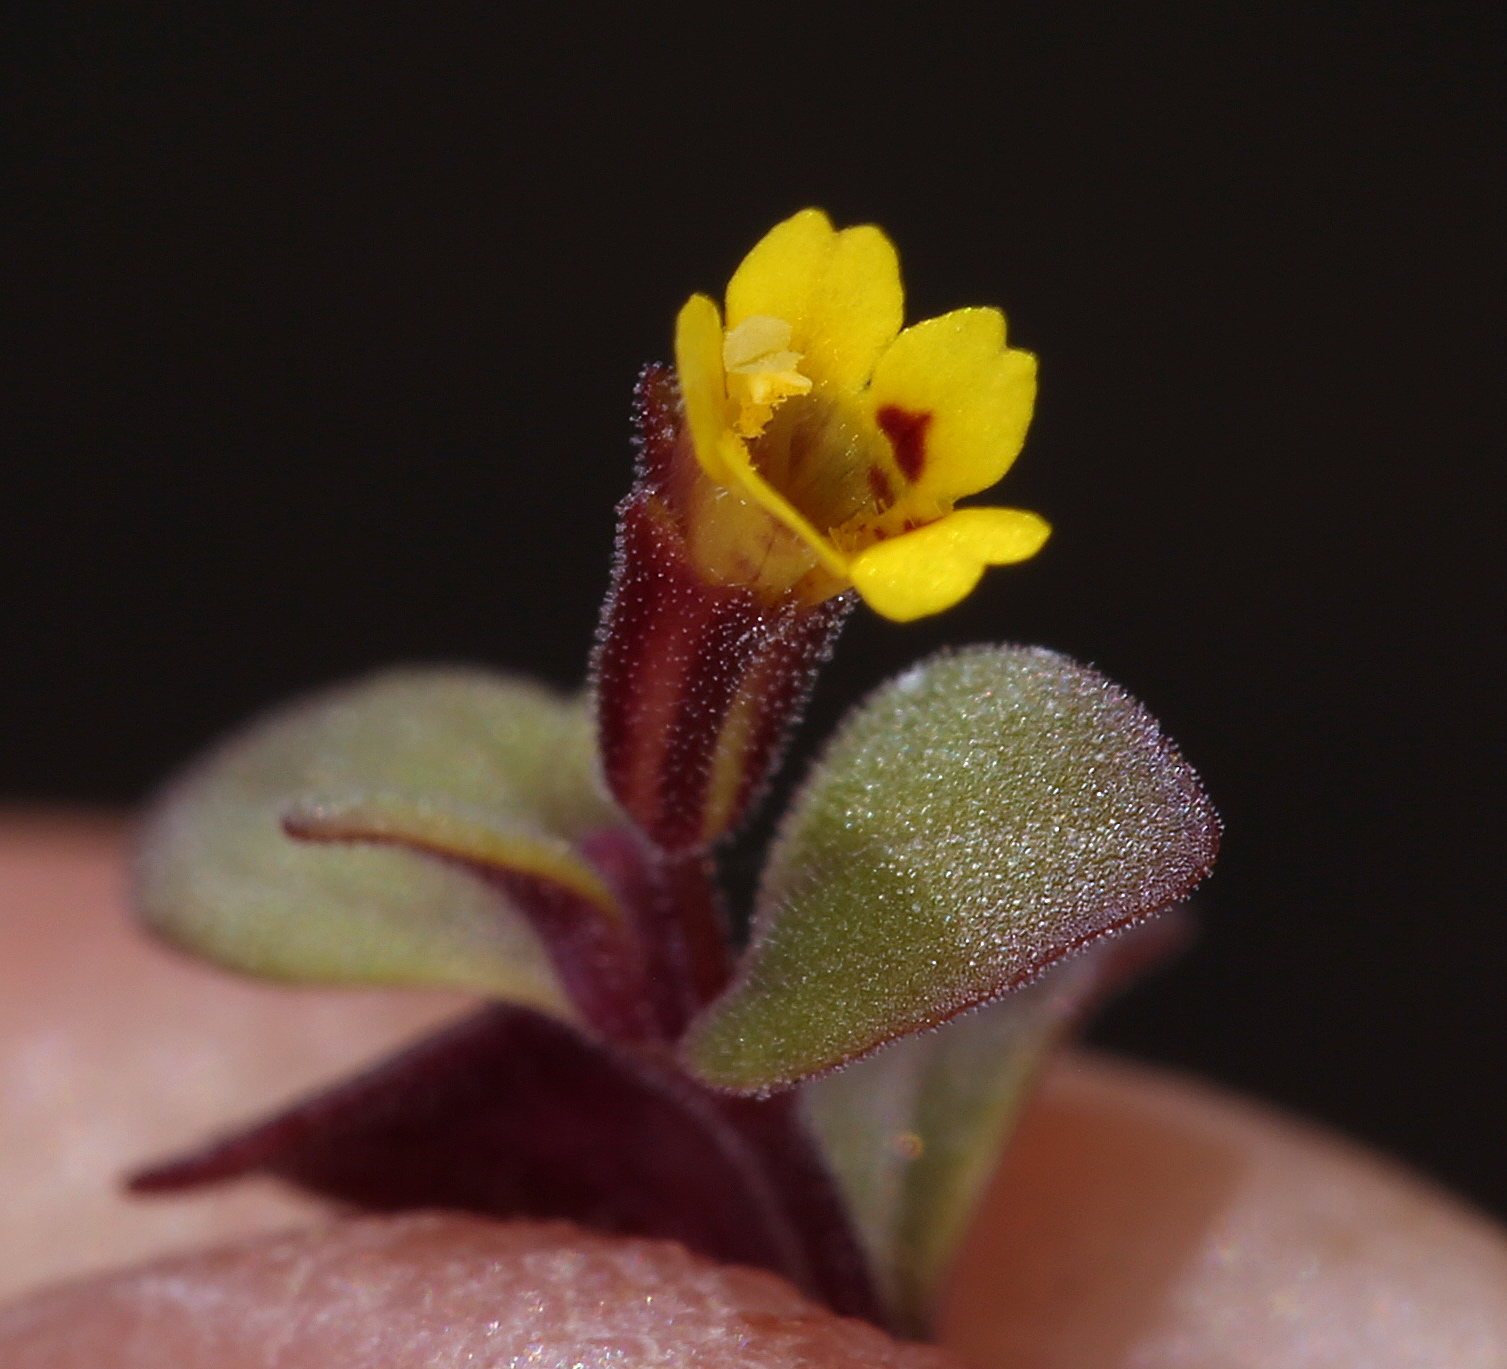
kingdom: Plantae
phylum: Tracheophyta
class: Magnoliopsida
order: Lamiales
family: Phrymaceae
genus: Erythranthe
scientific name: Erythranthe suksdorfii
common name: Suksdorf's monkeyflower
